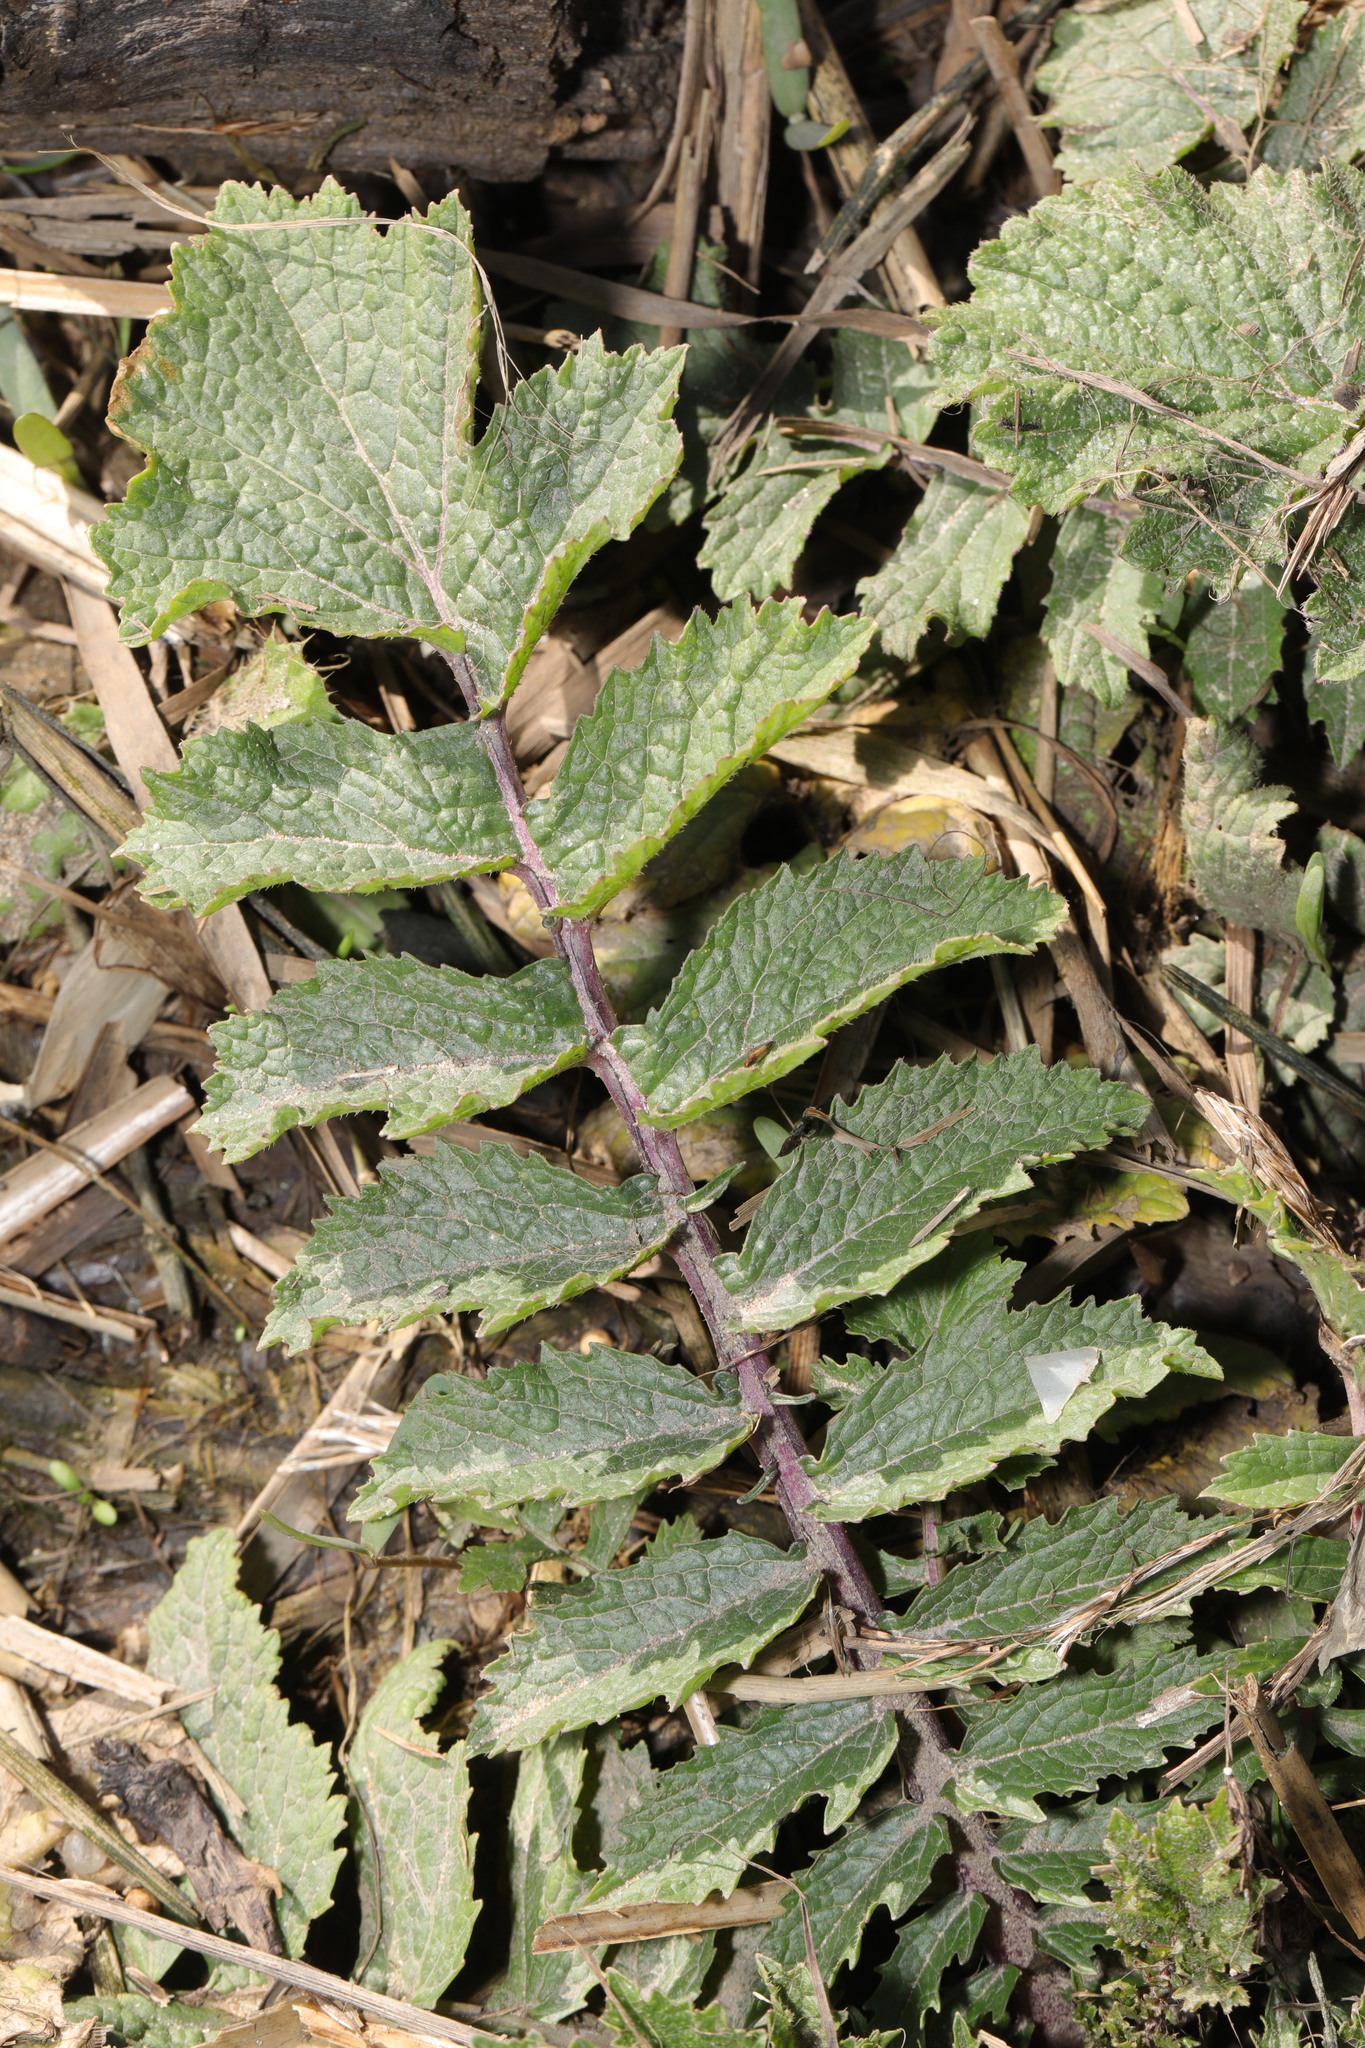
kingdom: Plantae
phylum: Tracheophyta
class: Magnoliopsida
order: Brassicales
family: Brassicaceae
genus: Raphanus
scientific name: Raphanus raphanistrum
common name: Wild radish
